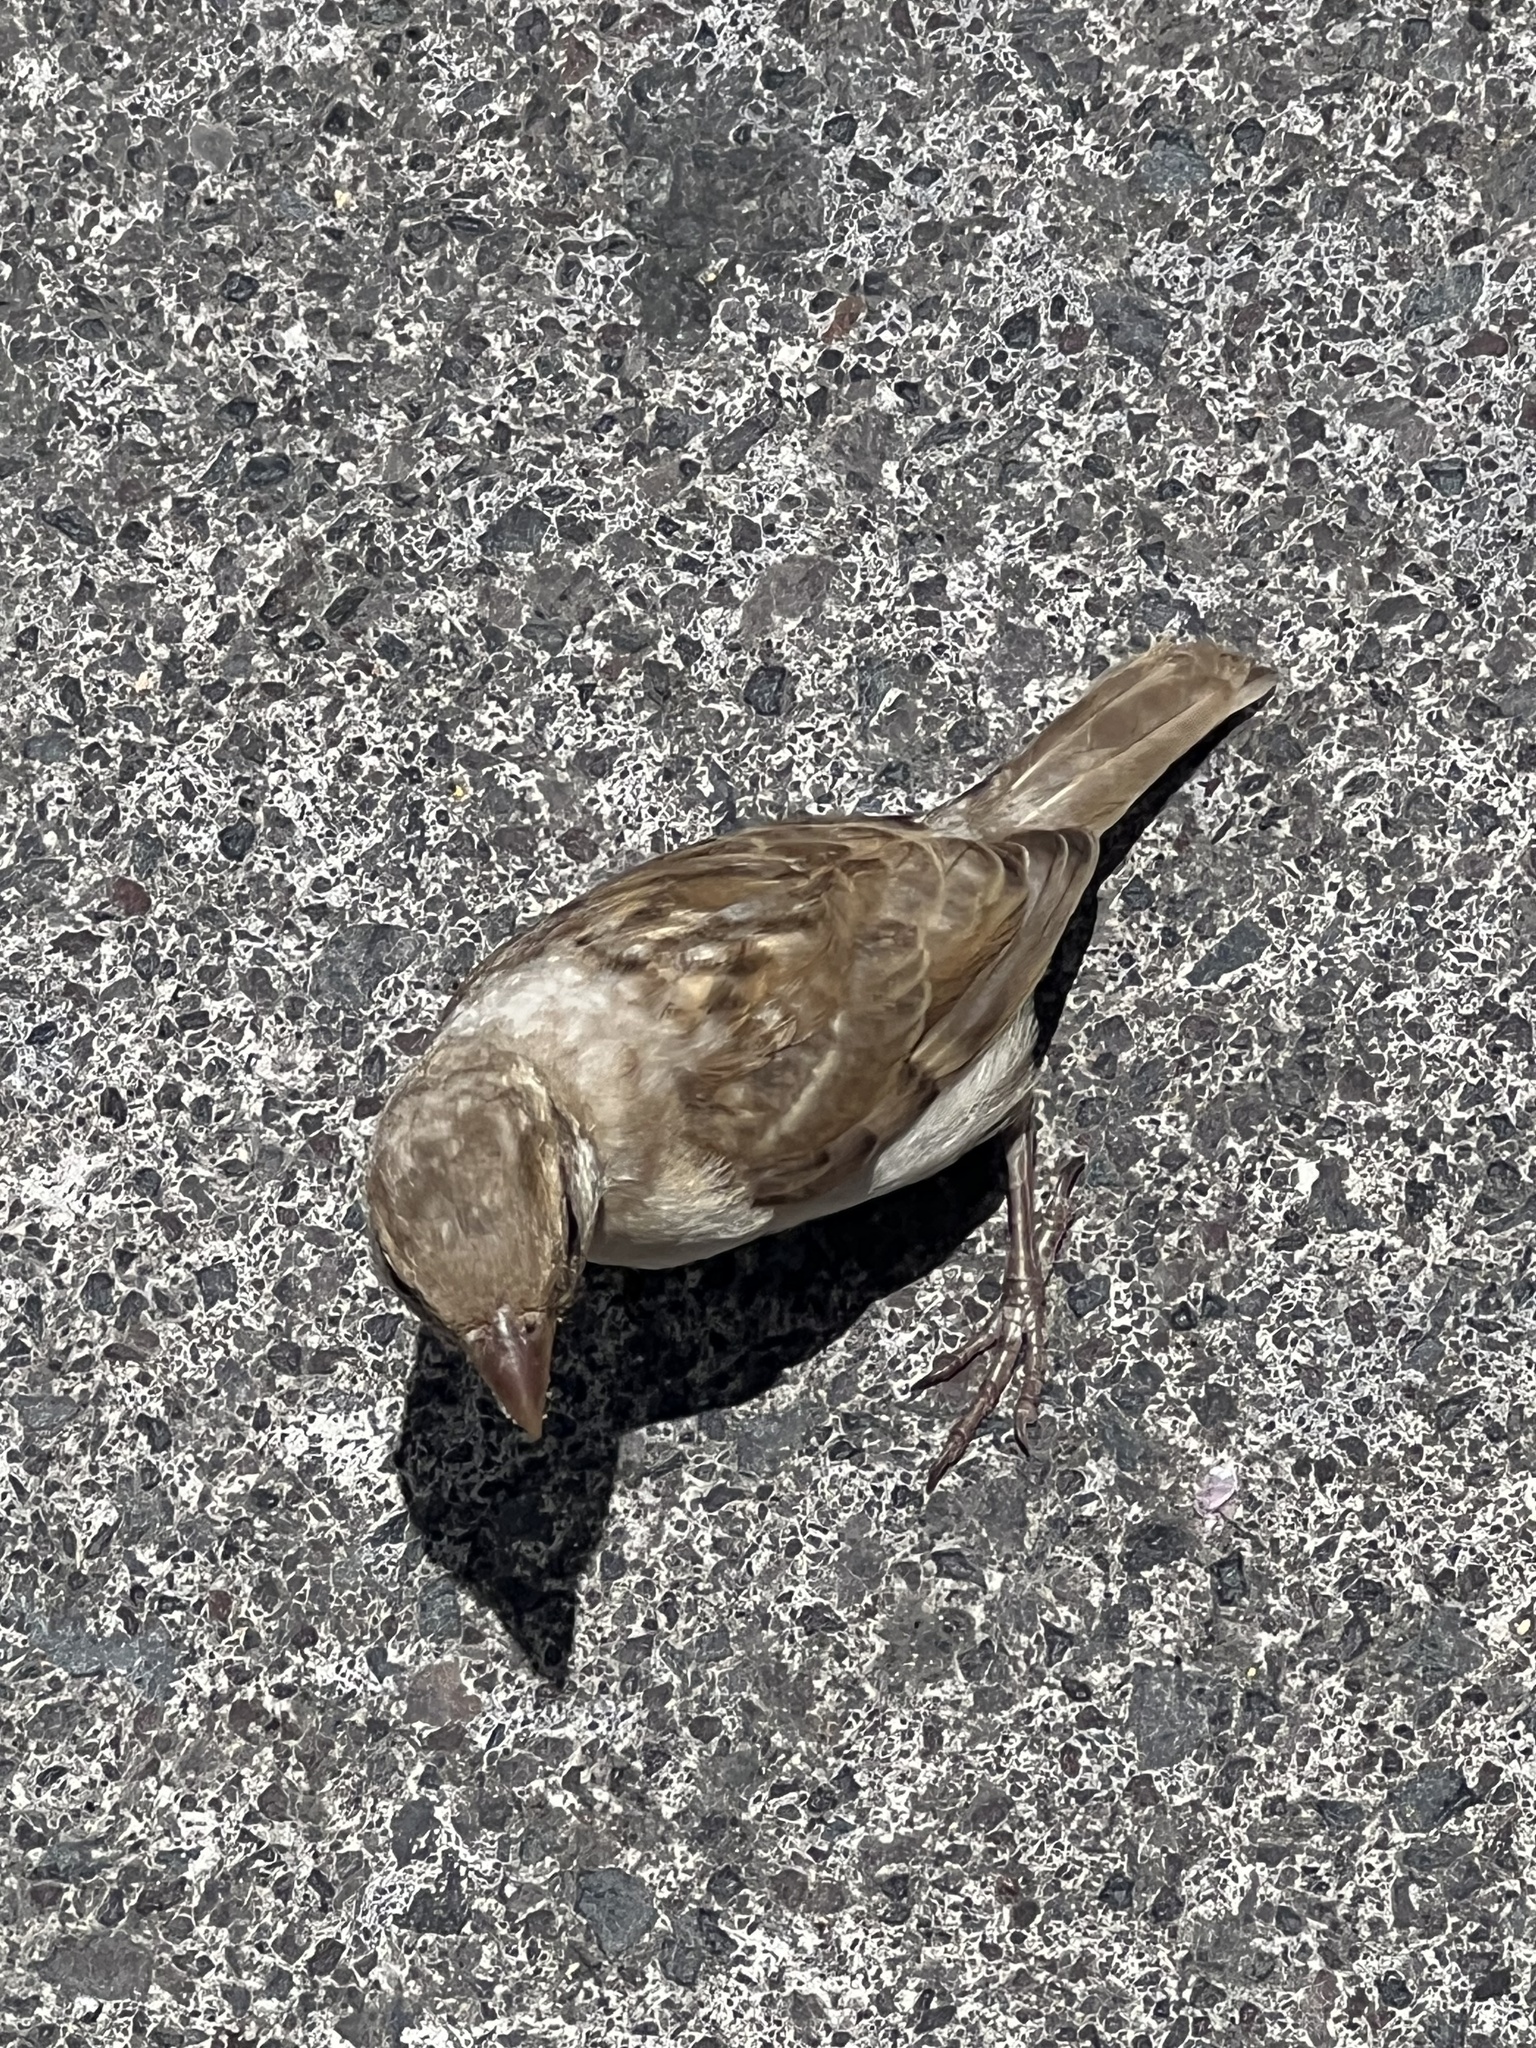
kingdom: Animalia
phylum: Chordata
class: Aves
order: Passeriformes
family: Passeridae
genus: Passer
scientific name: Passer domesticus
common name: House sparrow
